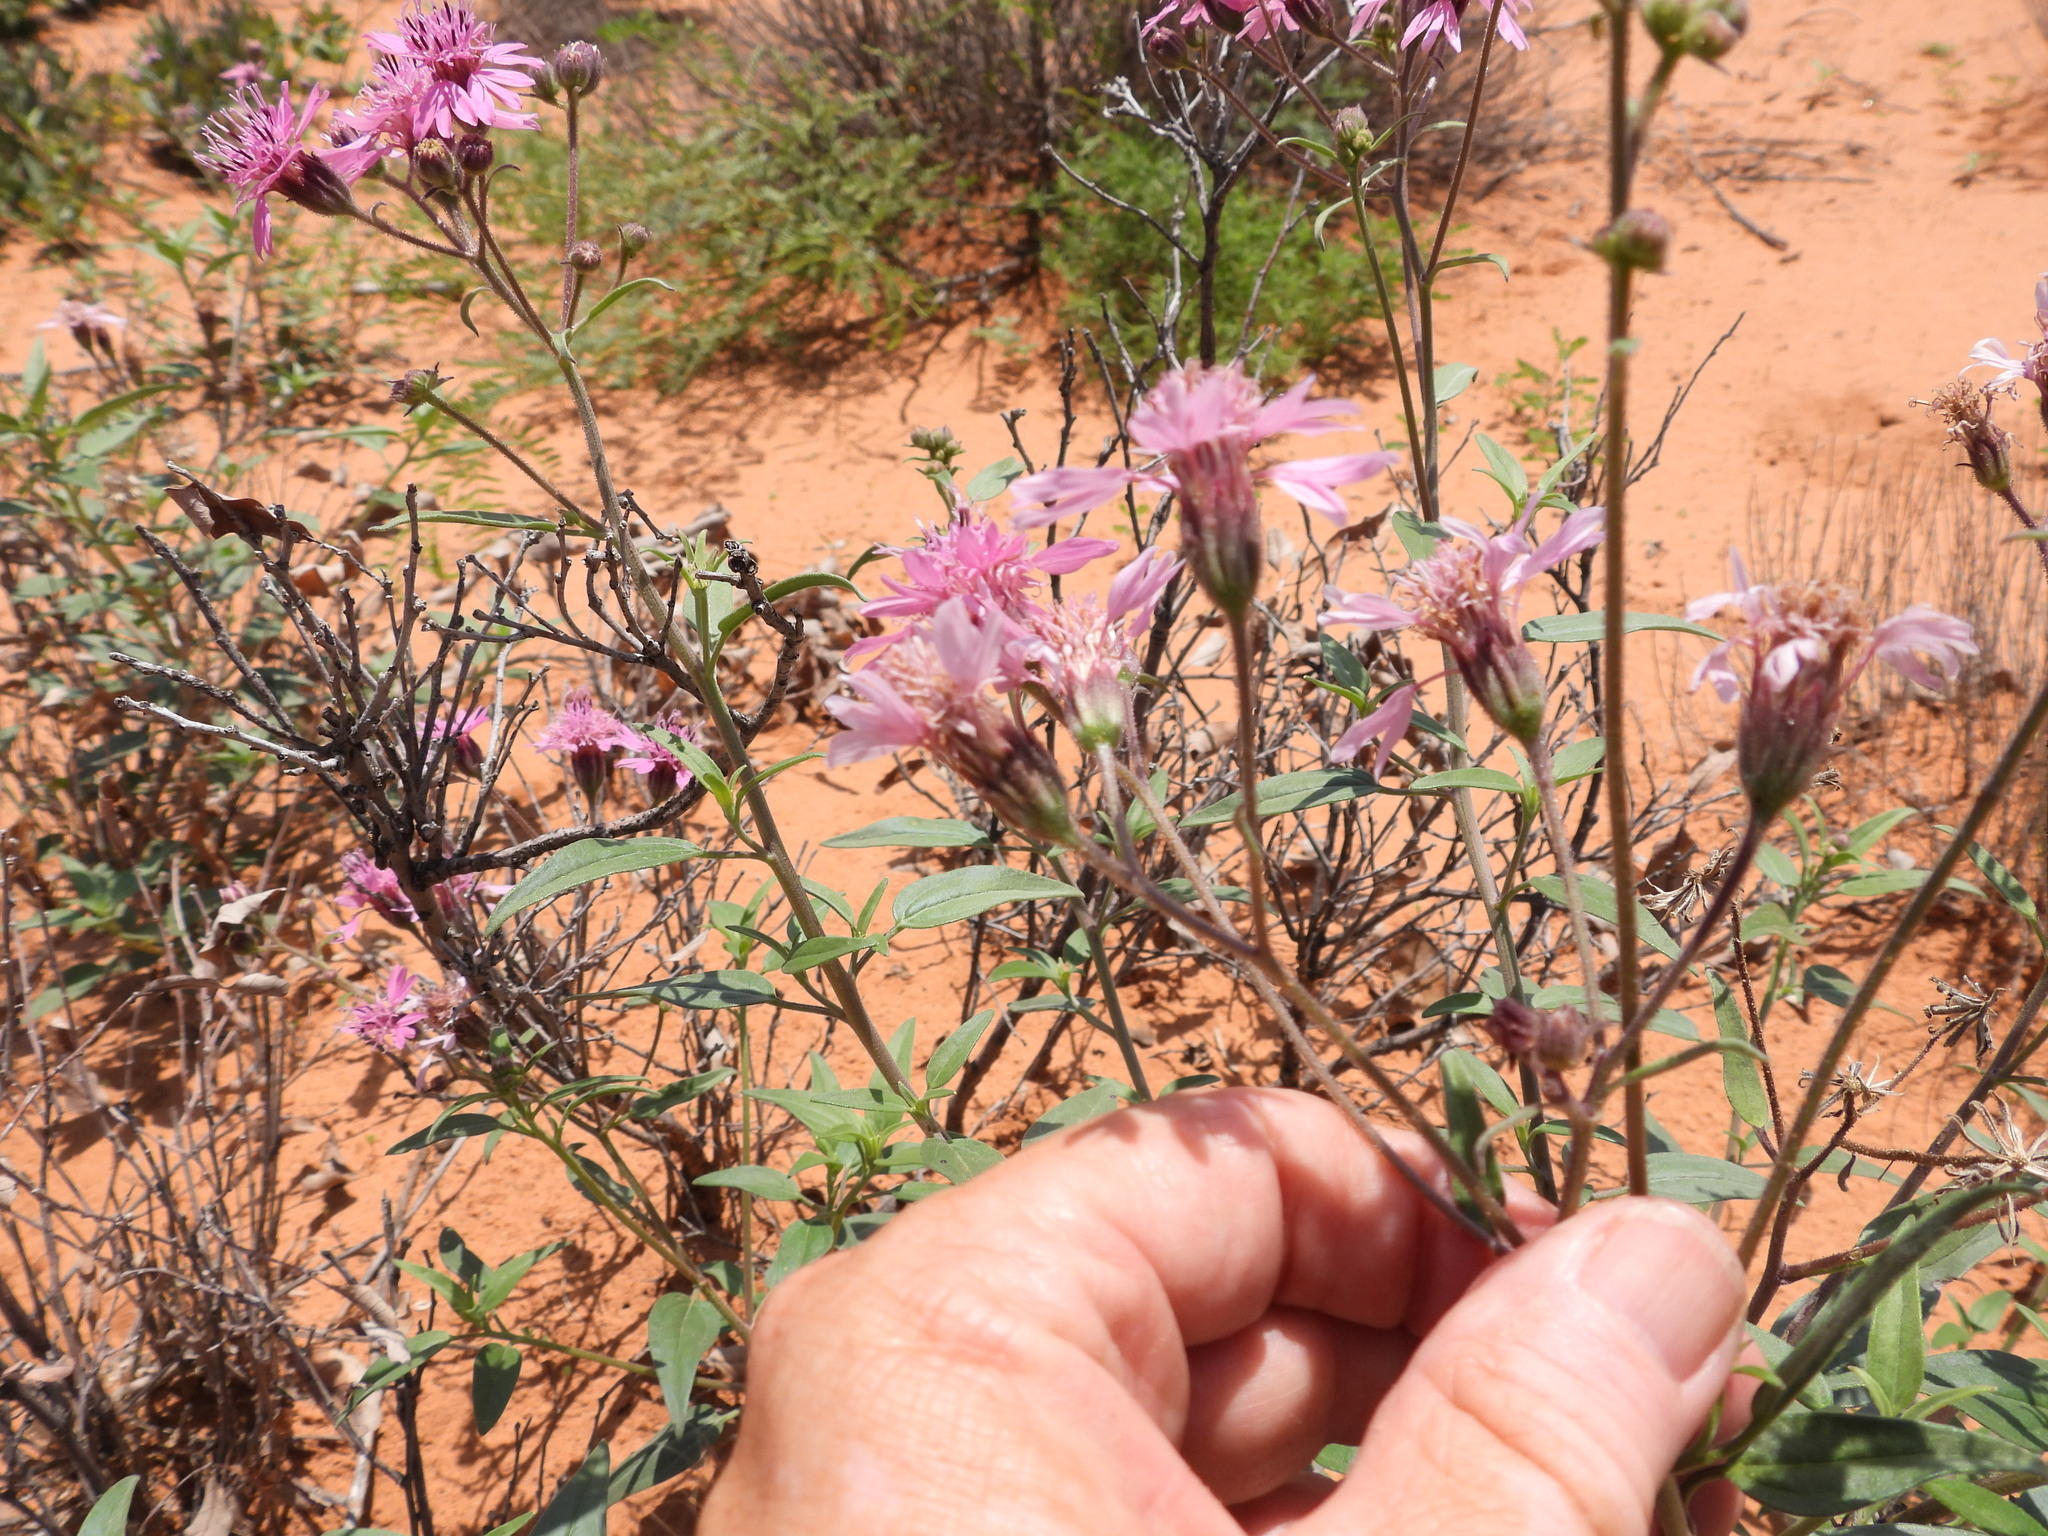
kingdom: Plantae
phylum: Tracheophyta
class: Magnoliopsida
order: Asterales
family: Asteraceae
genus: Palafoxia
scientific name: Palafoxia sphacelata
